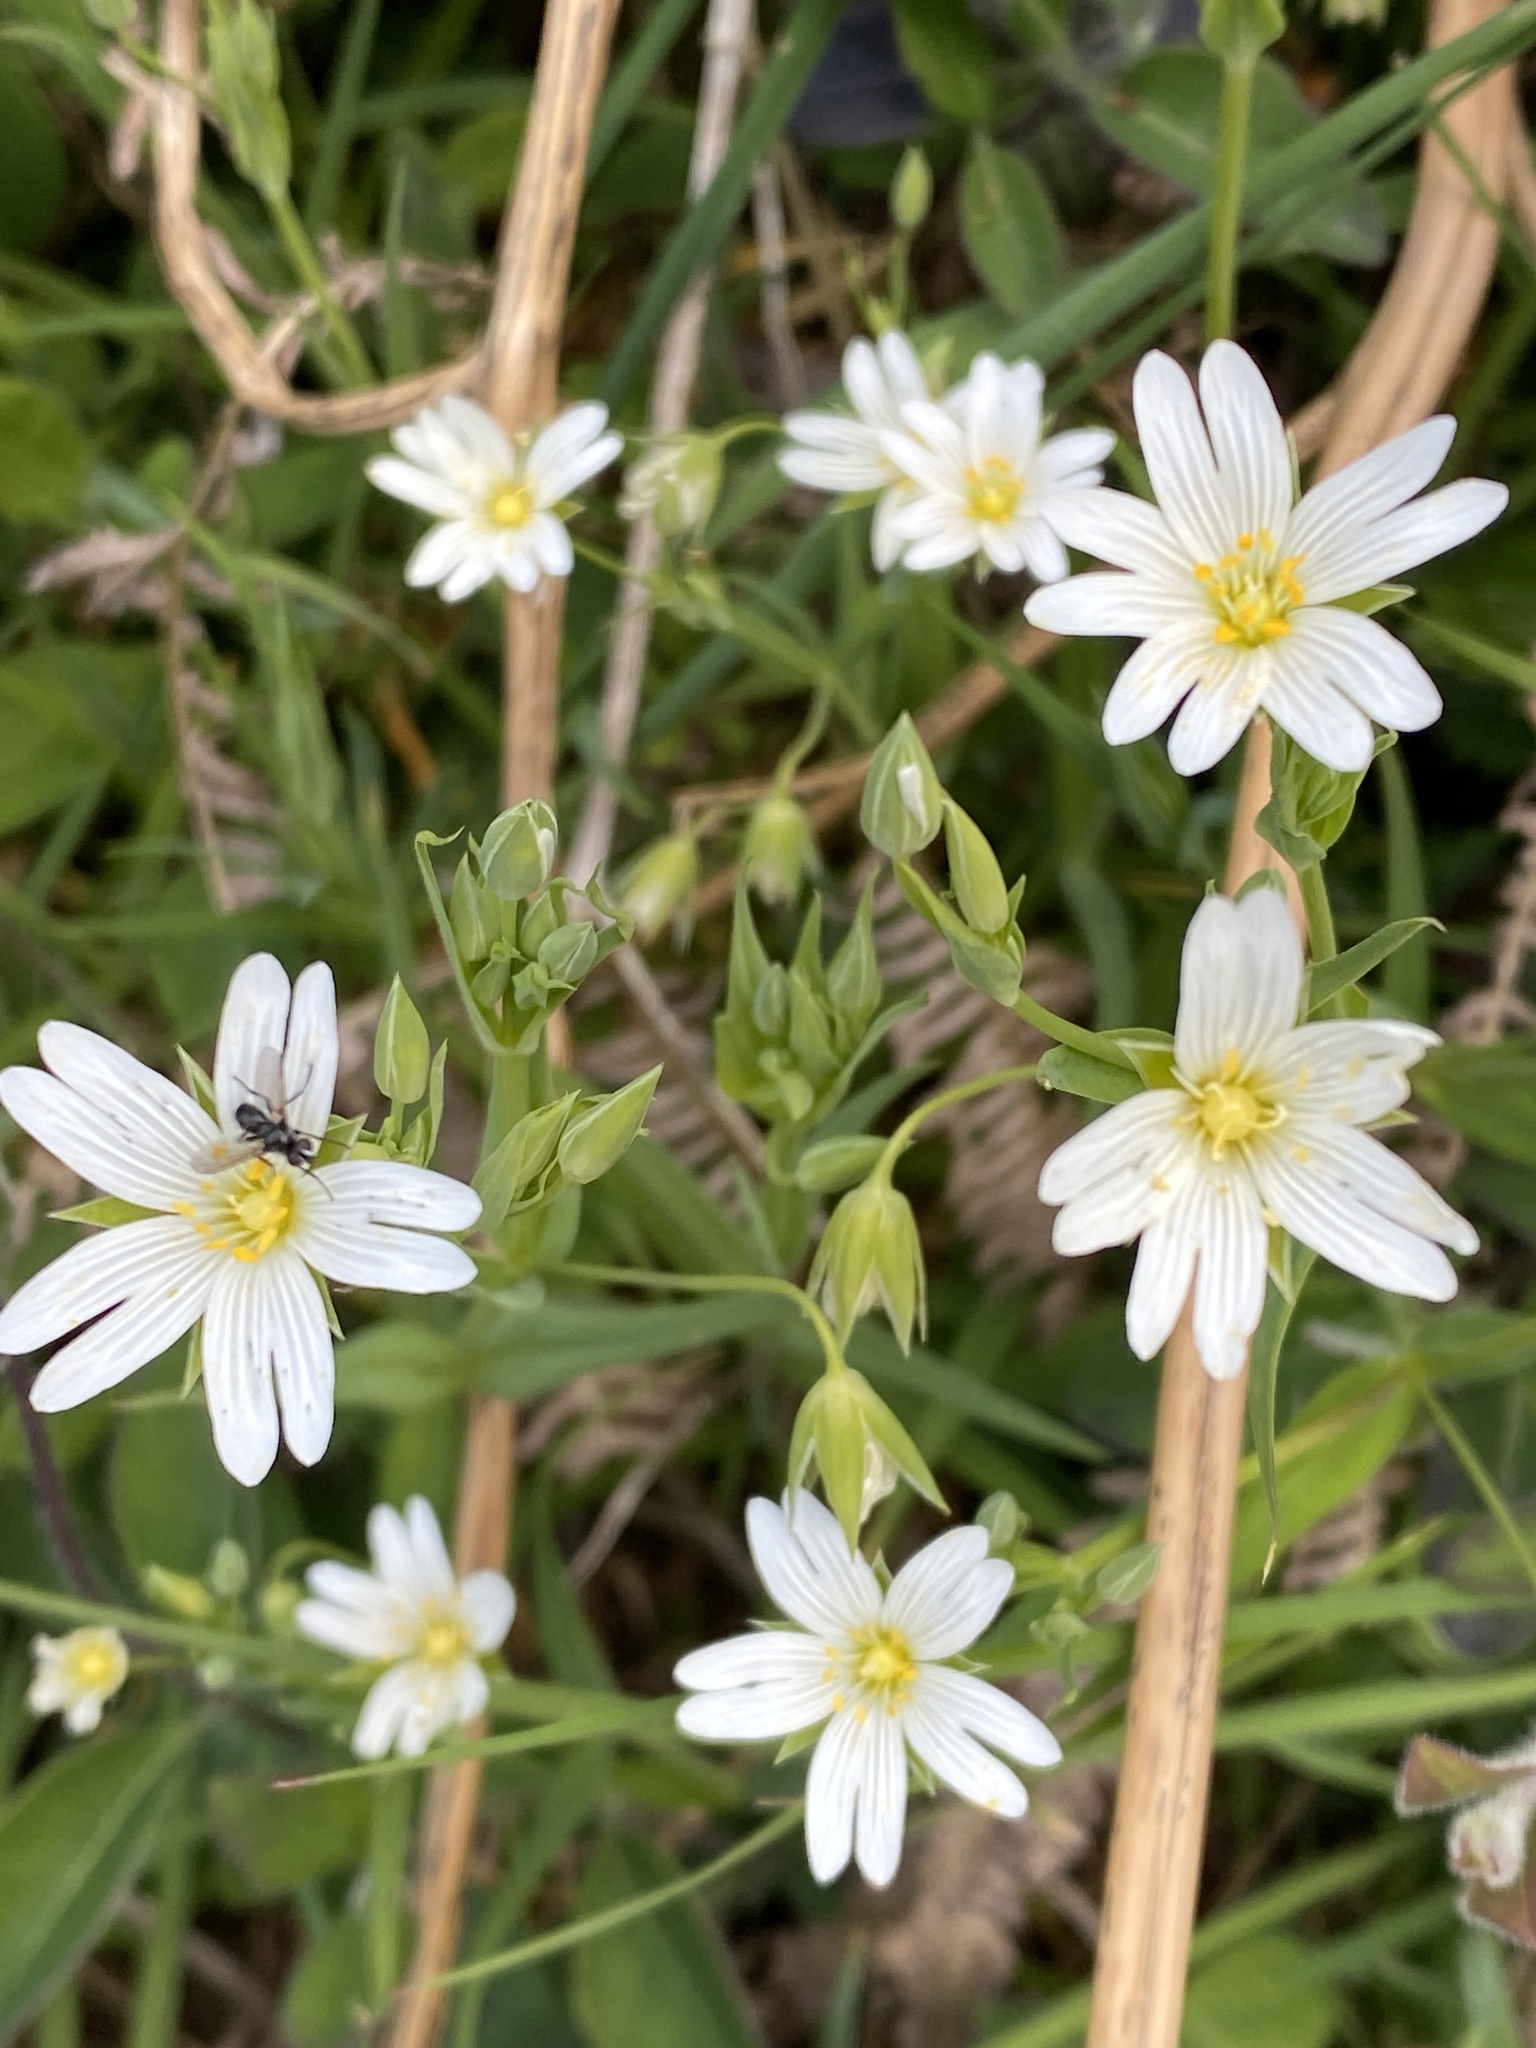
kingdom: Plantae
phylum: Tracheophyta
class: Magnoliopsida
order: Caryophyllales
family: Caryophyllaceae
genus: Rabelera
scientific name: Rabelera holostea
